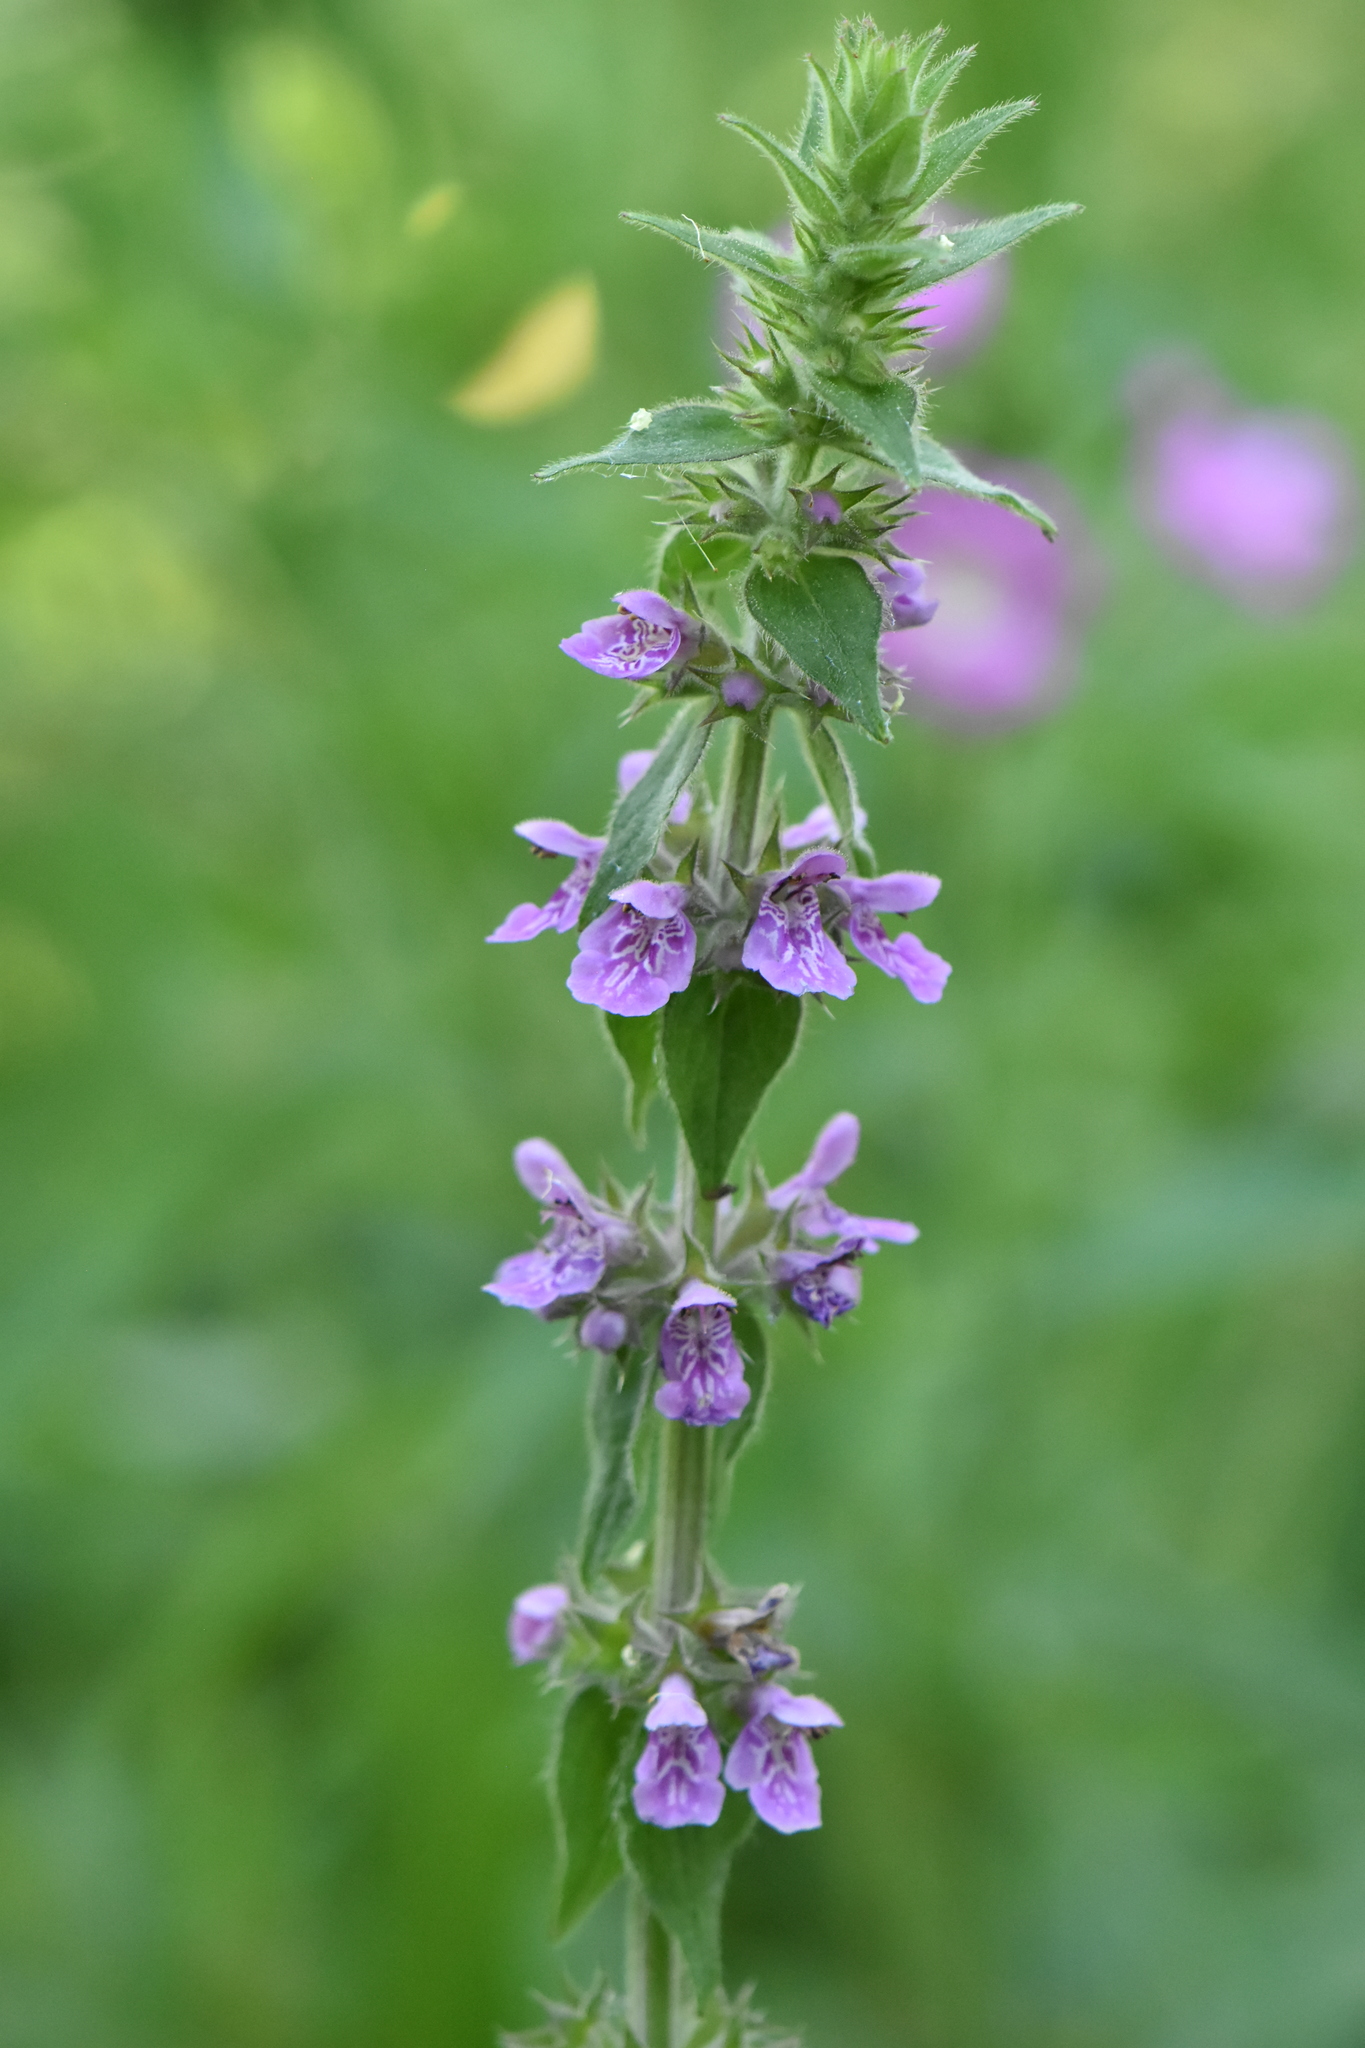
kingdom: Plantae
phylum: Tracheophyta
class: Magnoliopsida
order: Lamiales
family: Lamiaceae
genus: Stachys
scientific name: Stachys palustris
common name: Marsh woundwort
